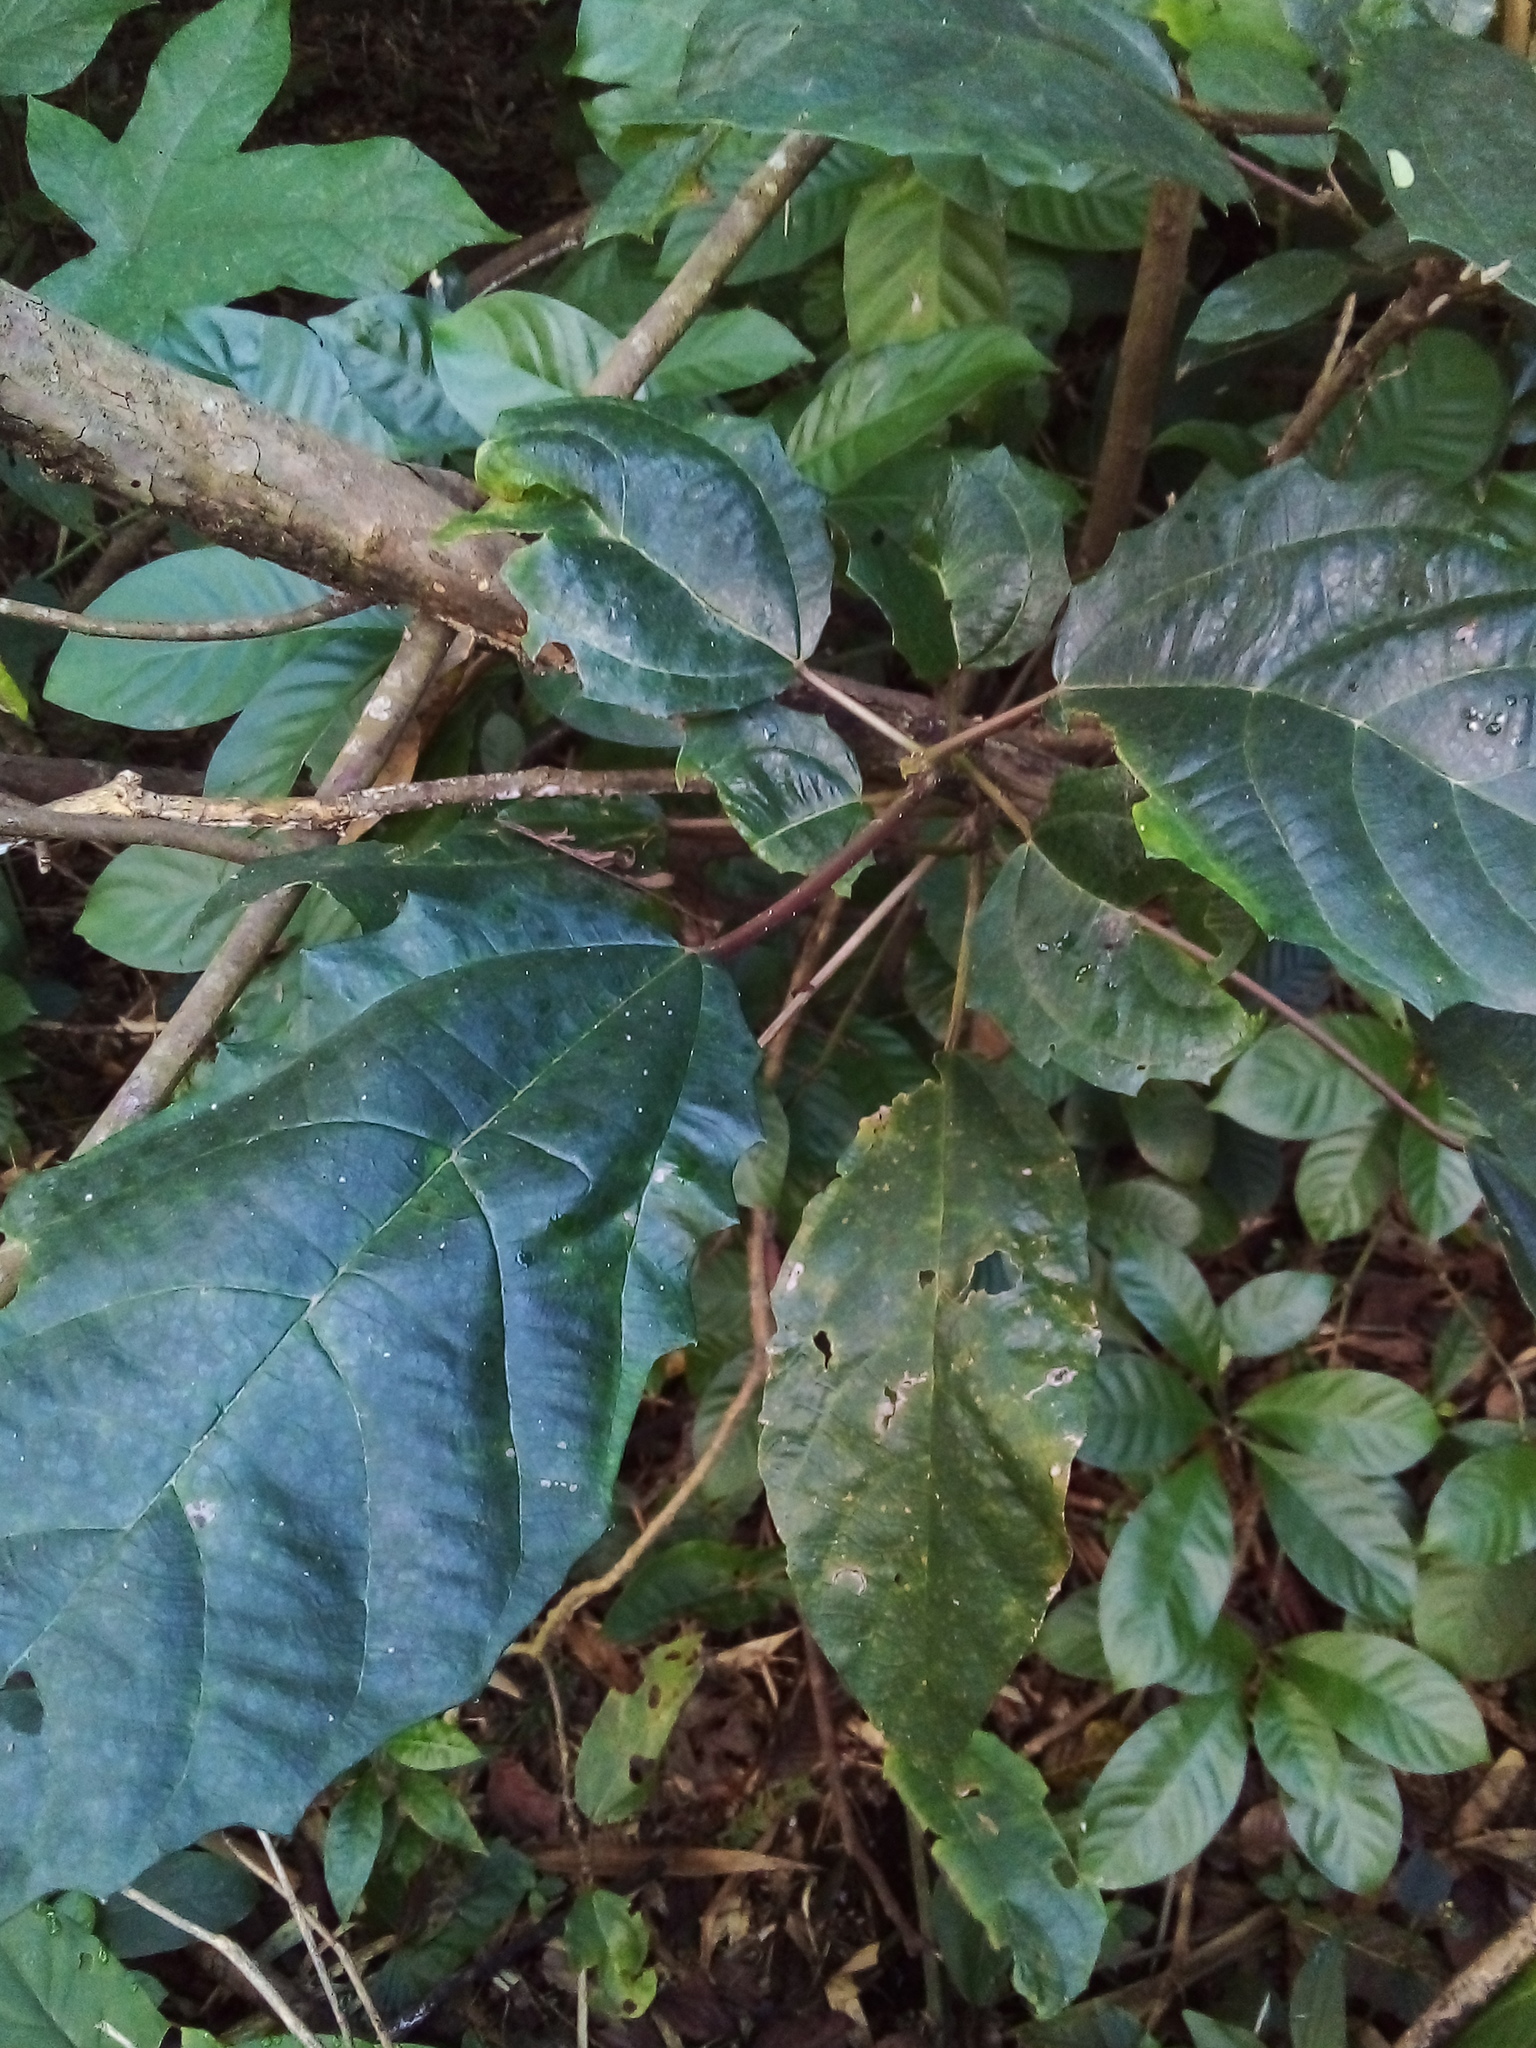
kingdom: Plantae
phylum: Tracheophyta
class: Magnoliopsida
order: Rosales
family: Urticaceae
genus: Urera
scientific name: Urera nitida
